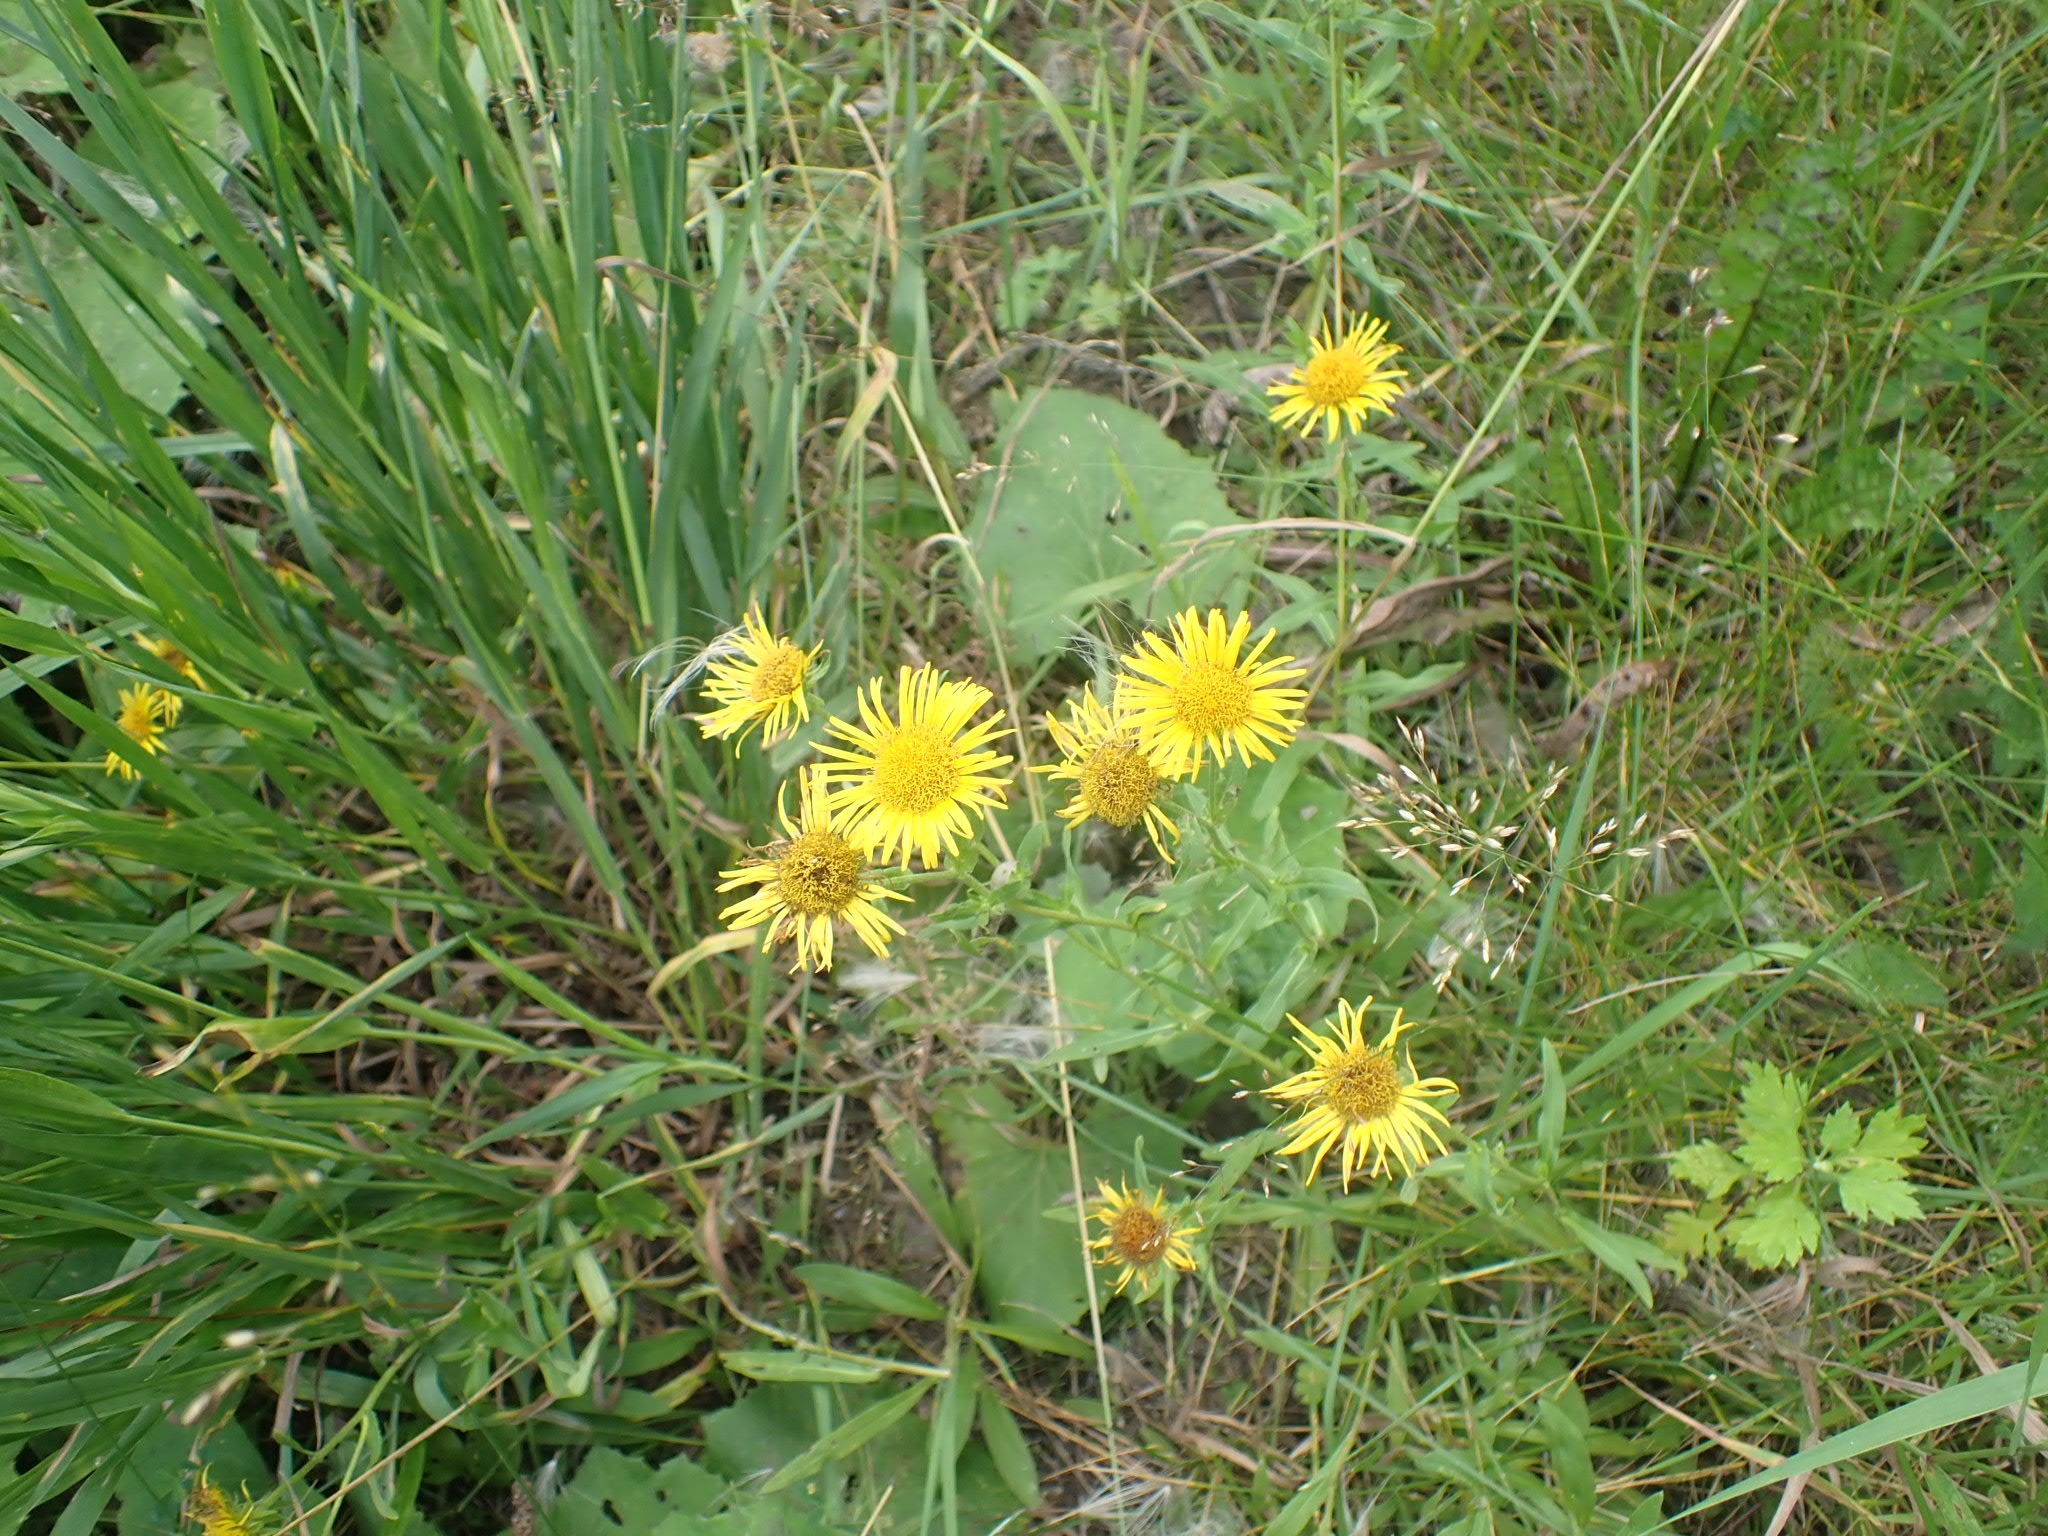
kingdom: Plantae
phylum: Tracheophyta
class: Magnoliopsida
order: Asterales
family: Asteraceae
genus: Pentanema
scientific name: Pentanema britannicum
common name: British elecampane
